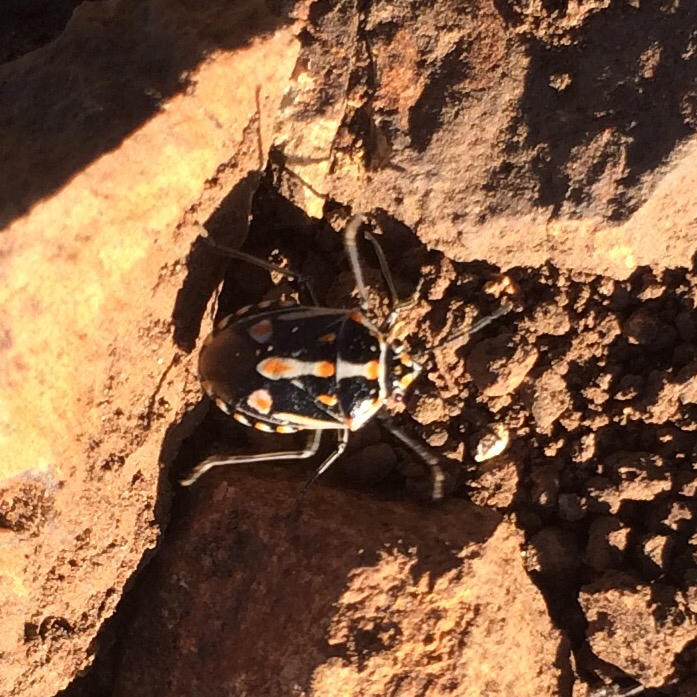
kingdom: Animalia
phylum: Arthropoda
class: Insecta
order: Hemiptera
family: Pentatomidae
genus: Bagrada
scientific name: Bagrada hilaris
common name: Bagrada bug
